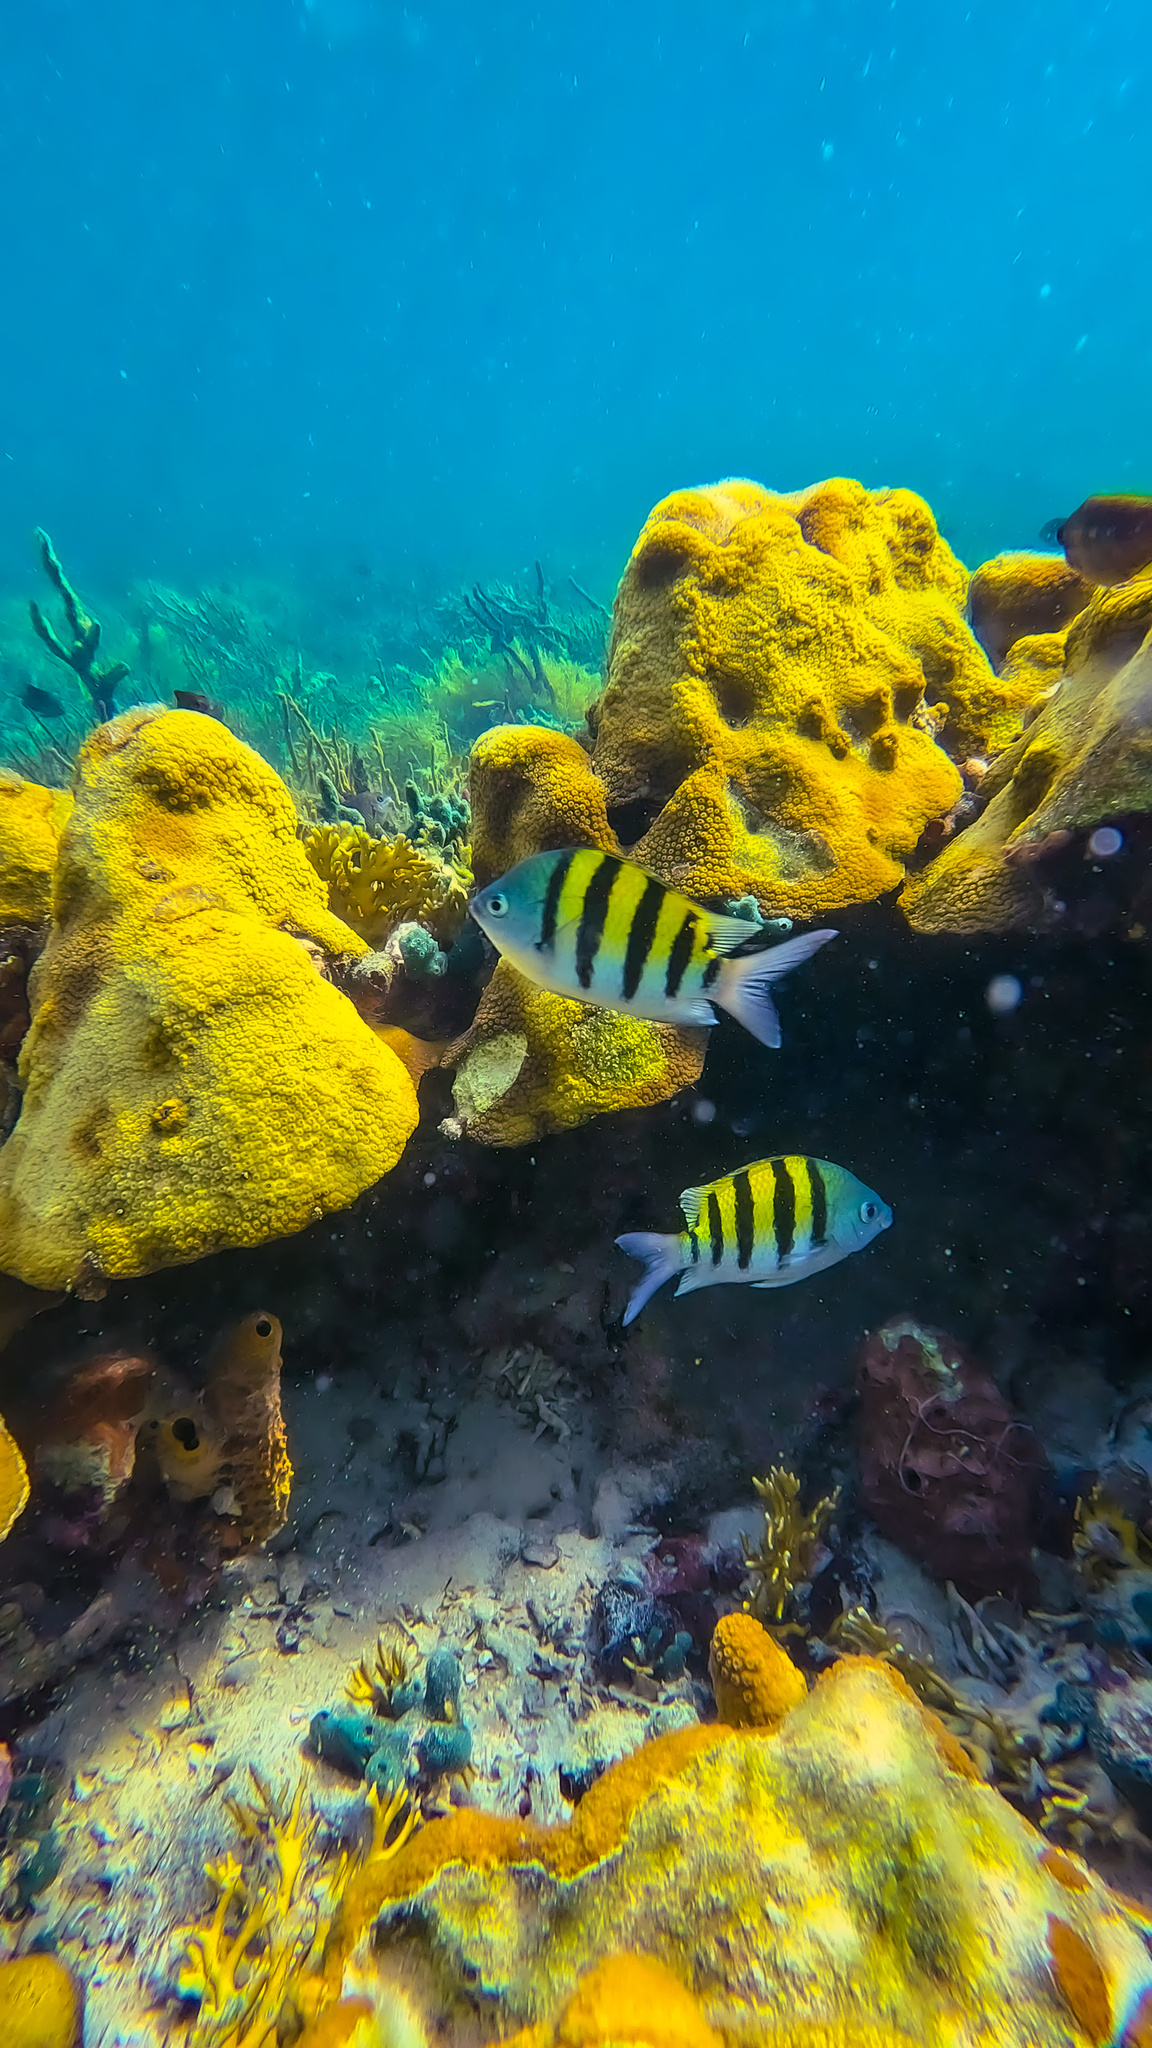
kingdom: Animalia
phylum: Chordata
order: Perciformes
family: Pomacentridae
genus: Abudefduf
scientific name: Abudefduf saxatilis
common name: Sergeant major
